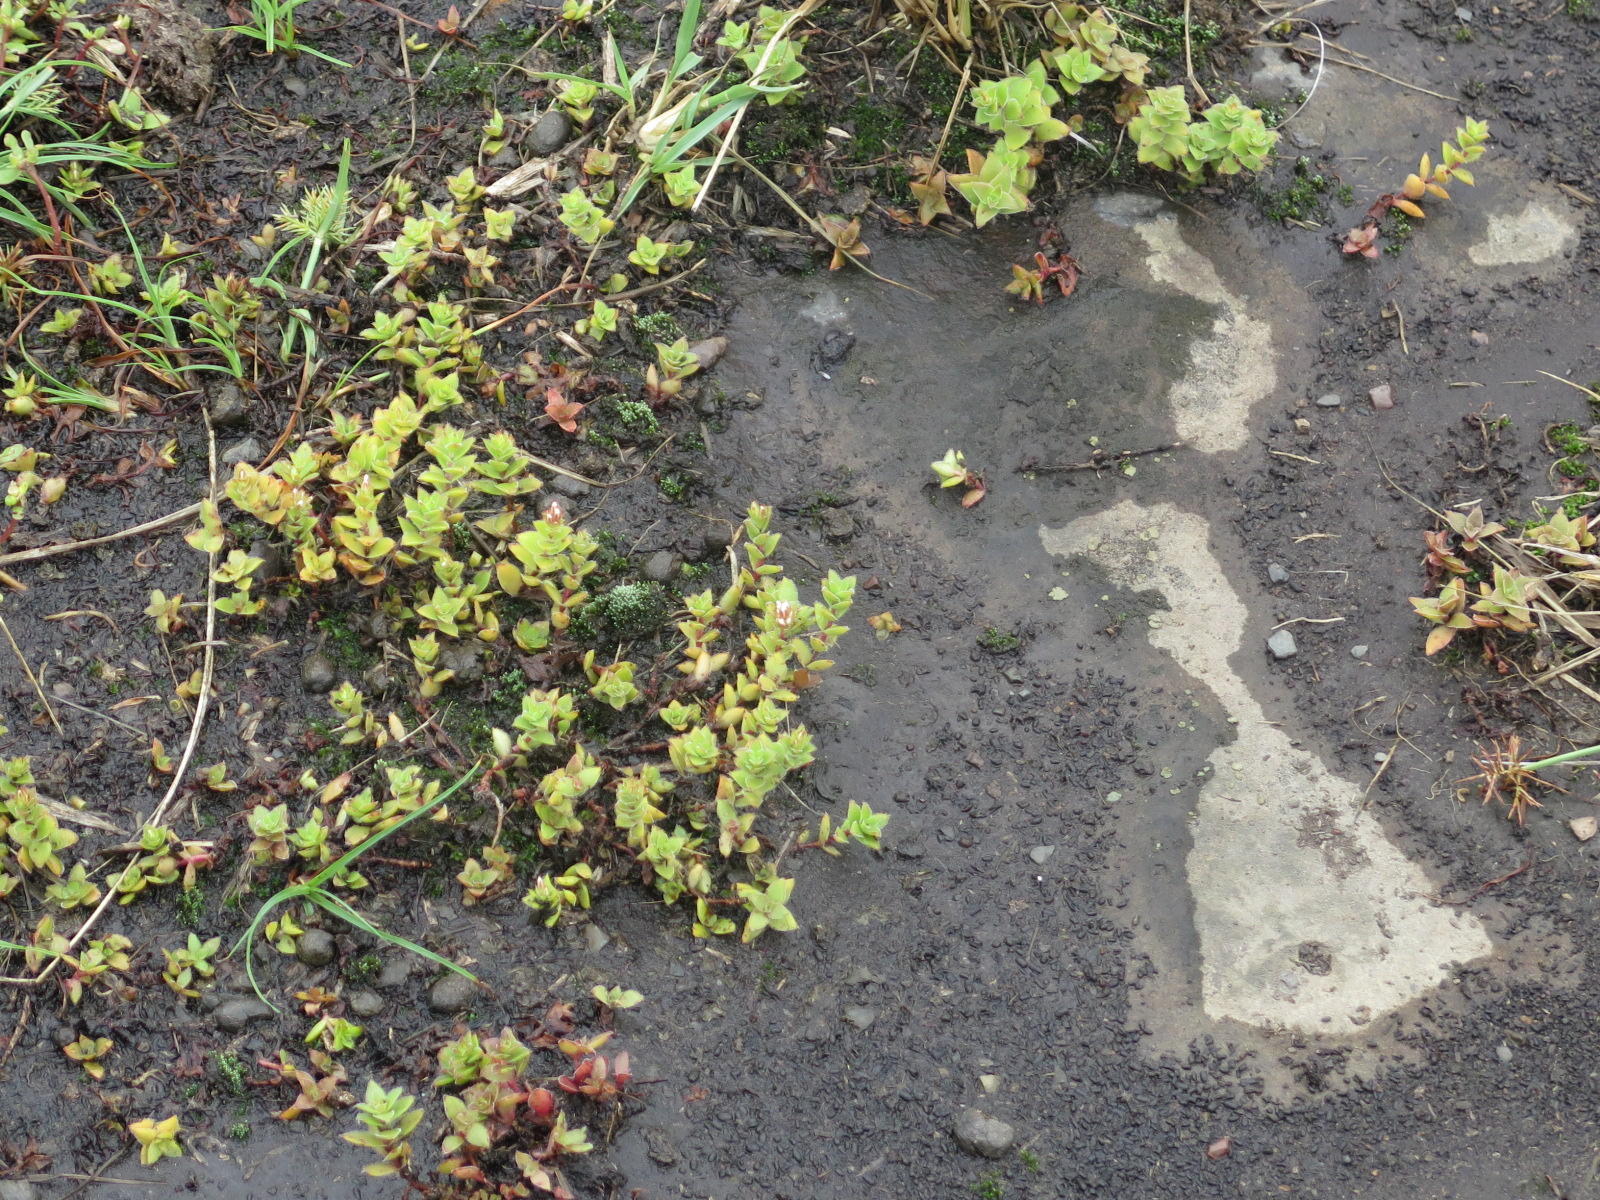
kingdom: Plantae
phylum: Tracheophyta
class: Magnoliopsida
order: Saxifragales
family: Crassulaceae
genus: Crassula
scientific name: Crassula obovata
